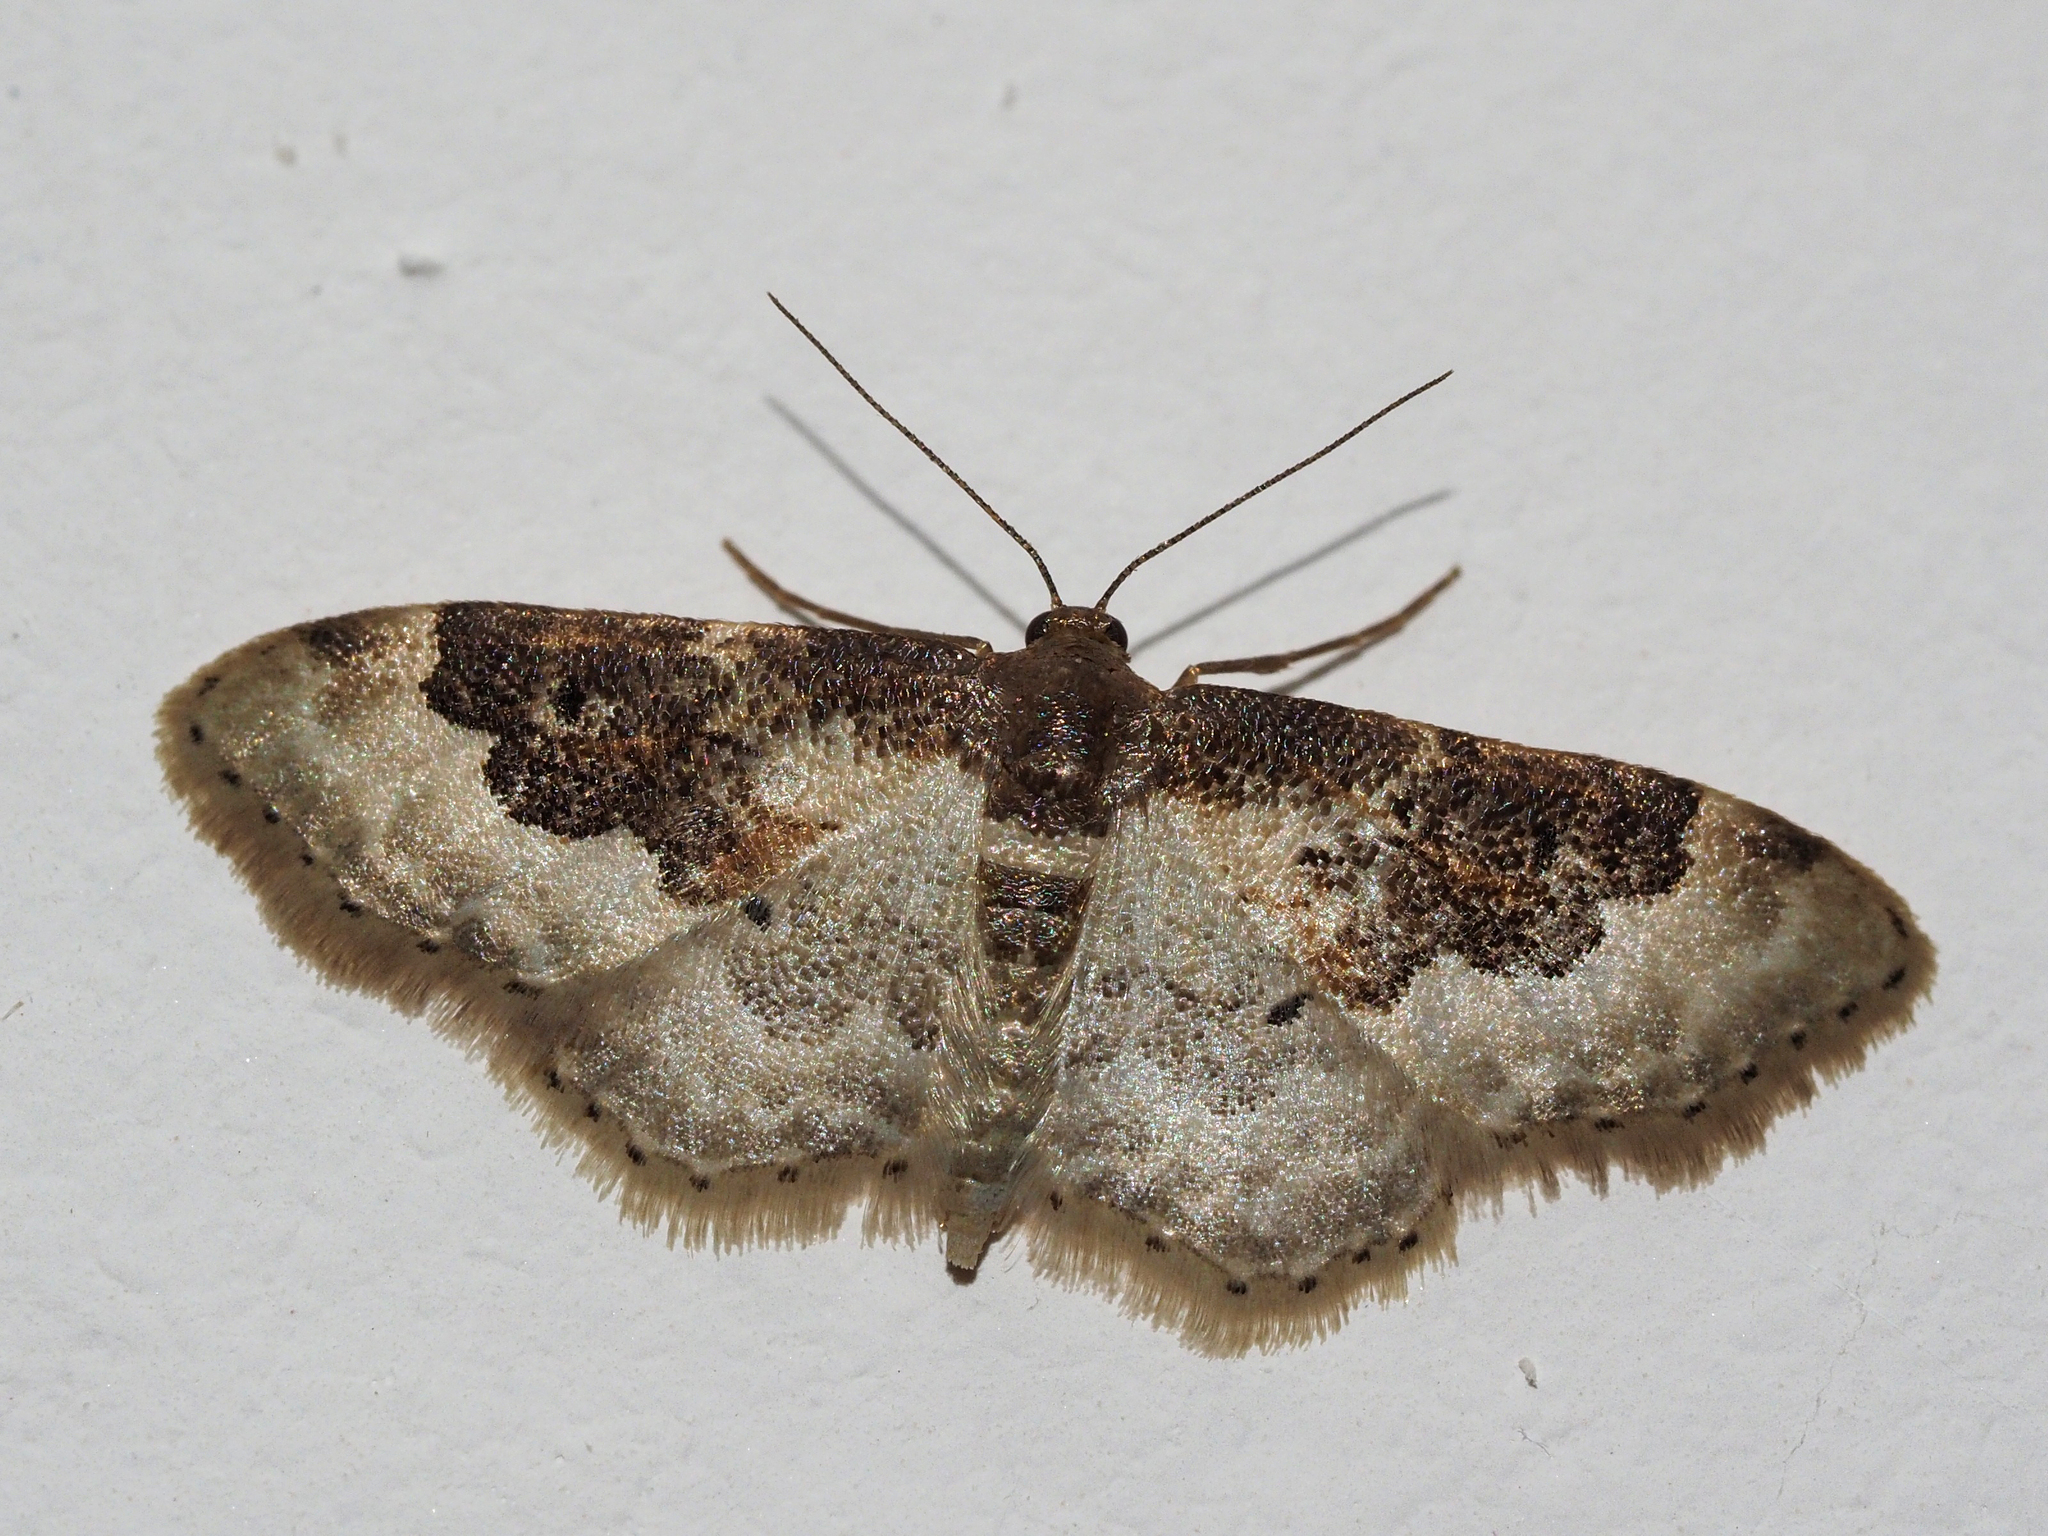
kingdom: Animalia
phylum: Arthropoda
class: Insecta
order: Lepidoptera
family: Geometridae
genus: Idaea
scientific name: Idaea rusticata
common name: Least carpet
